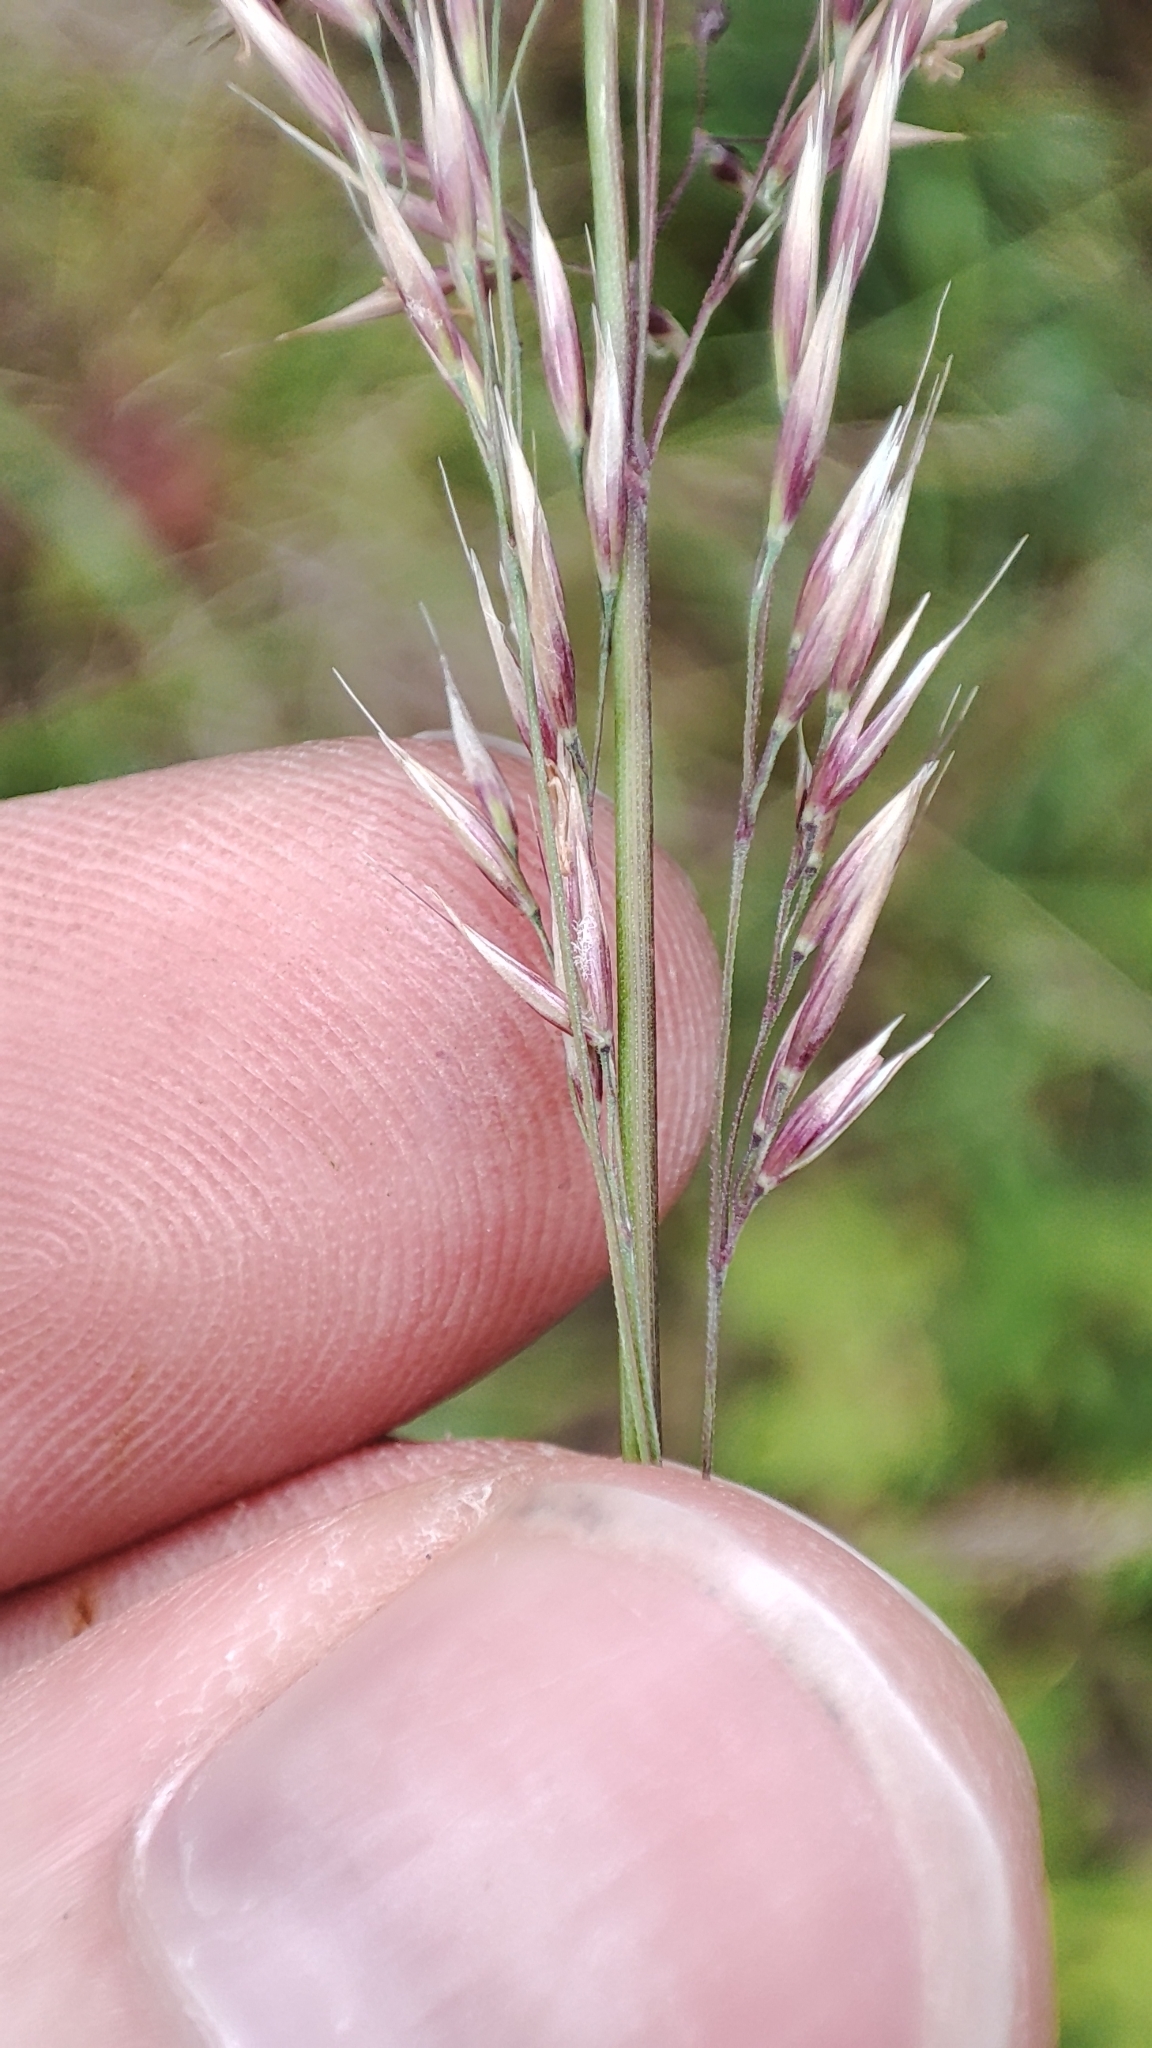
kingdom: Plantae
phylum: Tracheophyta
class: Liliopsida
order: Poales
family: Poaceae
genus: Calamagrostis
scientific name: Calamagrostis purpurea
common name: Scandinavian small-reed
